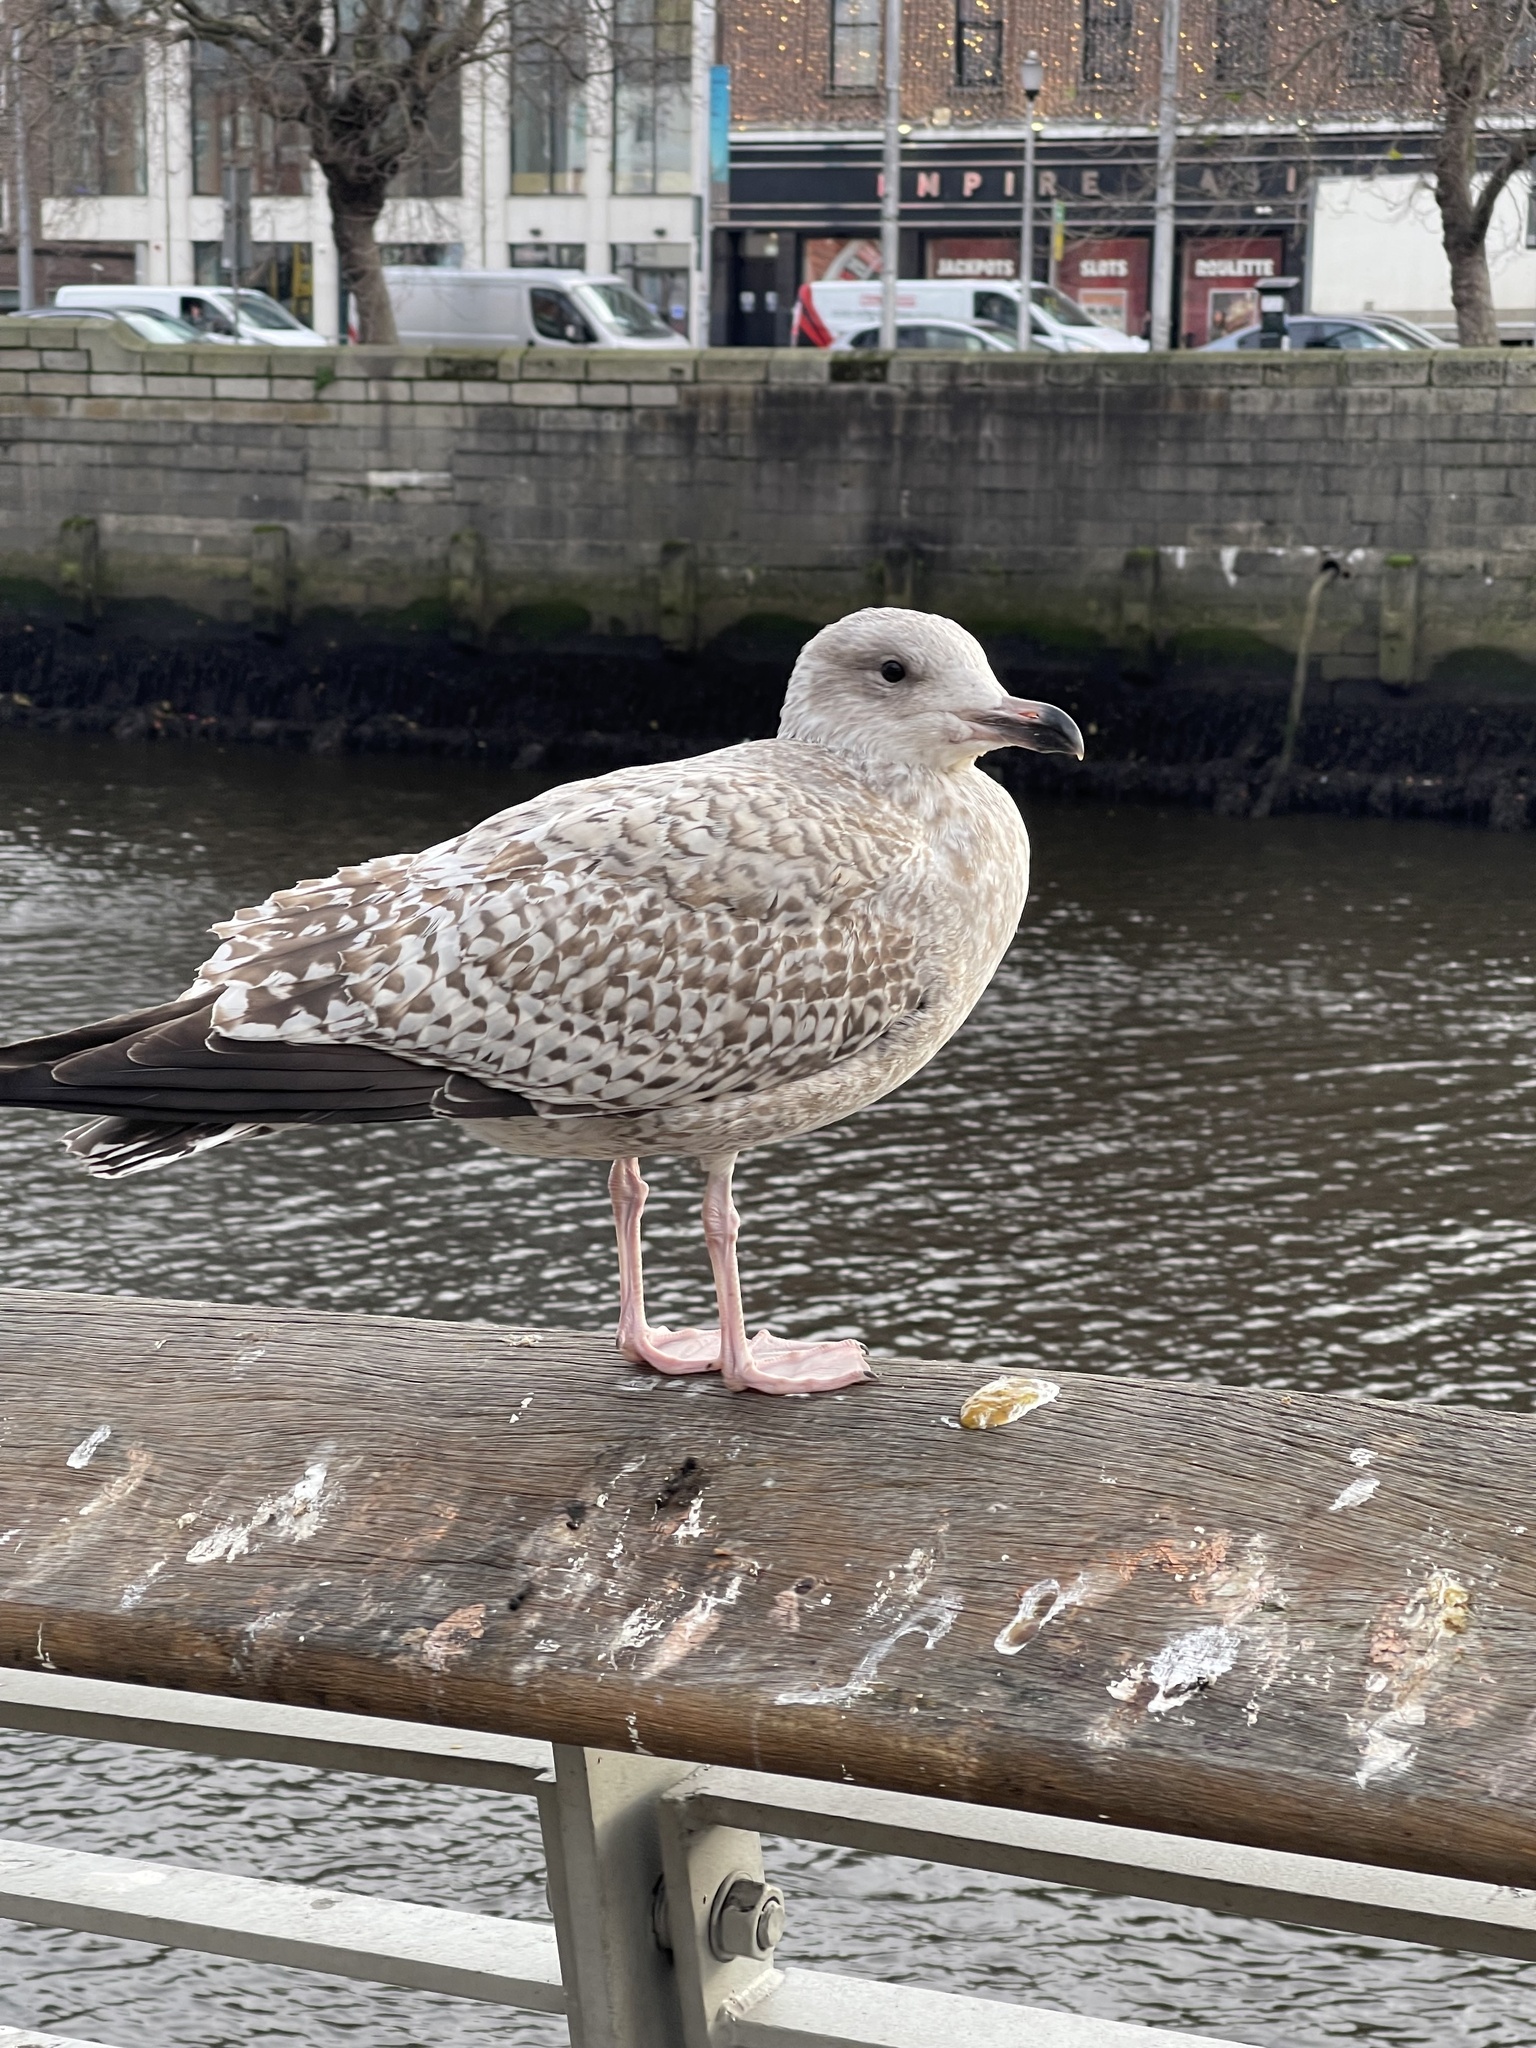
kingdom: Animalia
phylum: Chordata
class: Aves
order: Charadriiformes
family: Laridae
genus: Larus
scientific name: Larus argentatus
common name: Herring gull
